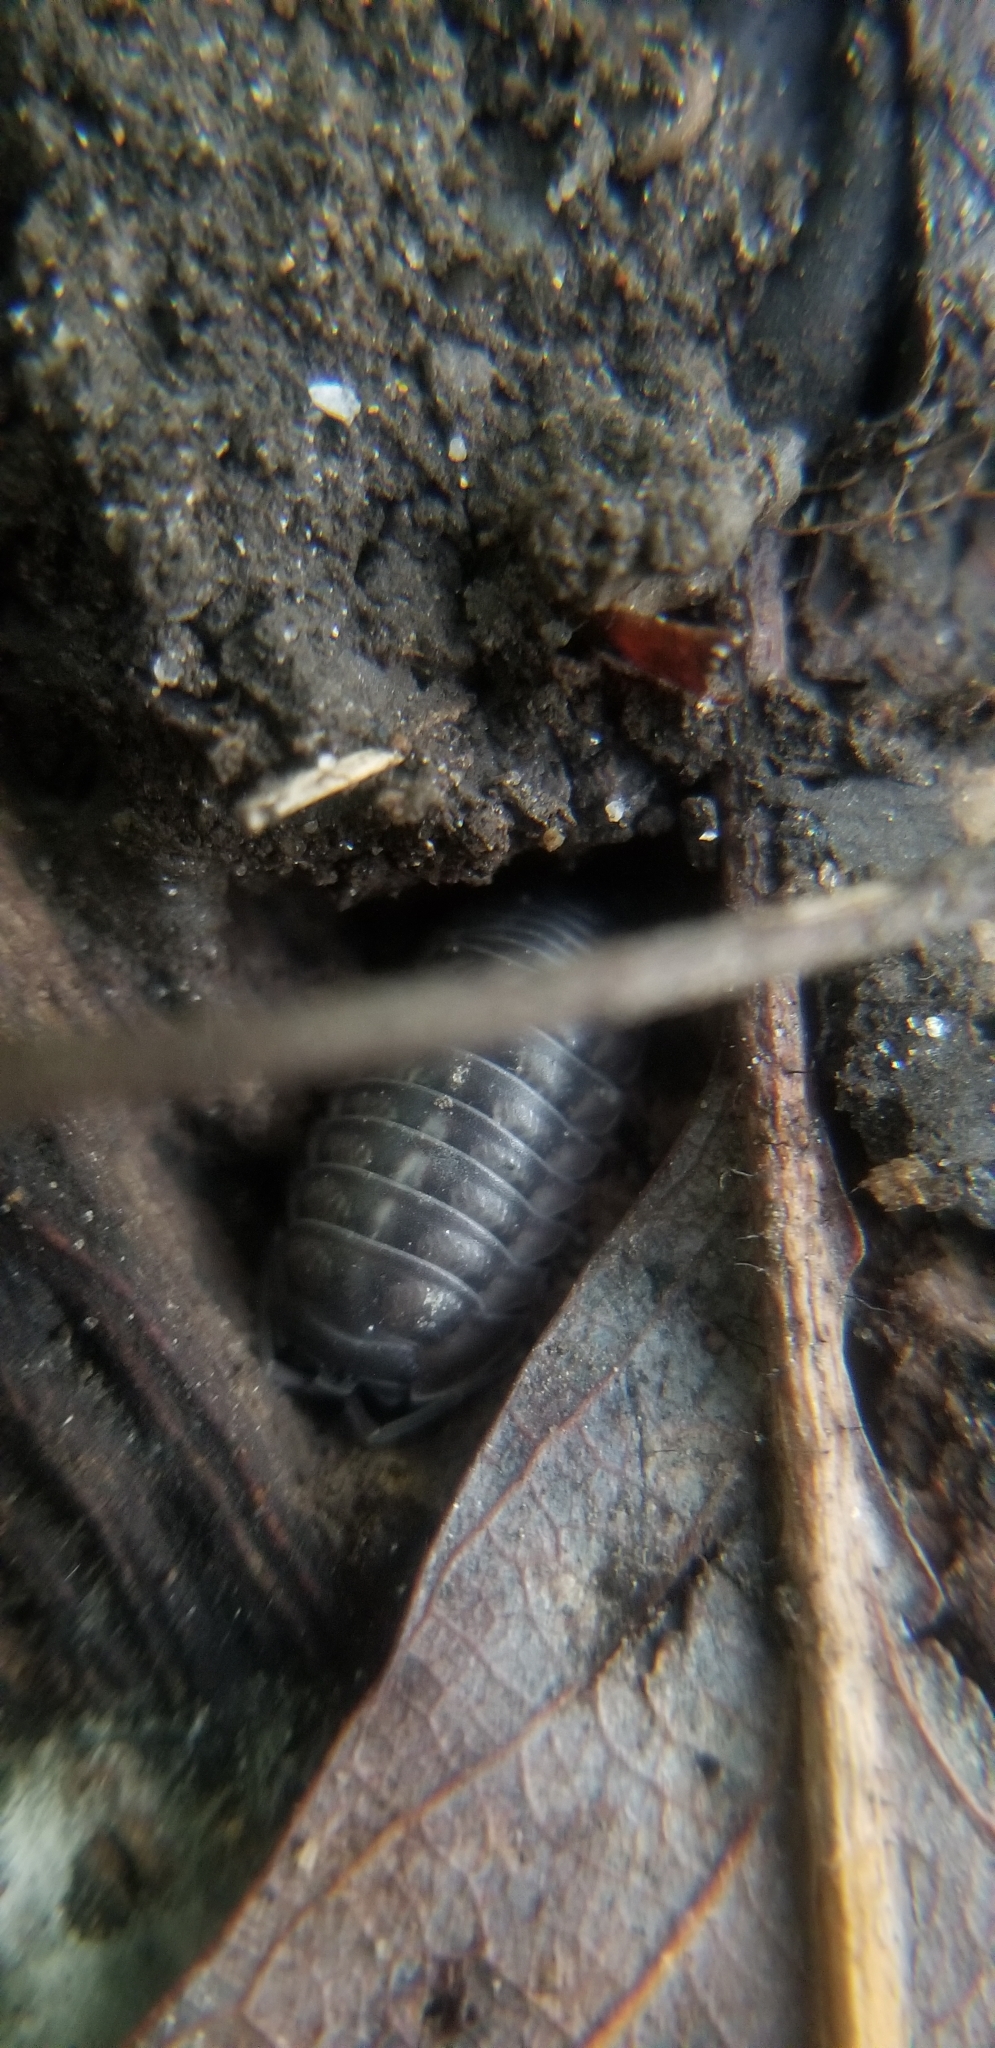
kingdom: Animalia
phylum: Arthropoda
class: Malacostraca
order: Isopoda
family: Armadillidiidae
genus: Armadillidium
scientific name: Armadillidium nasatum
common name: Isopod
